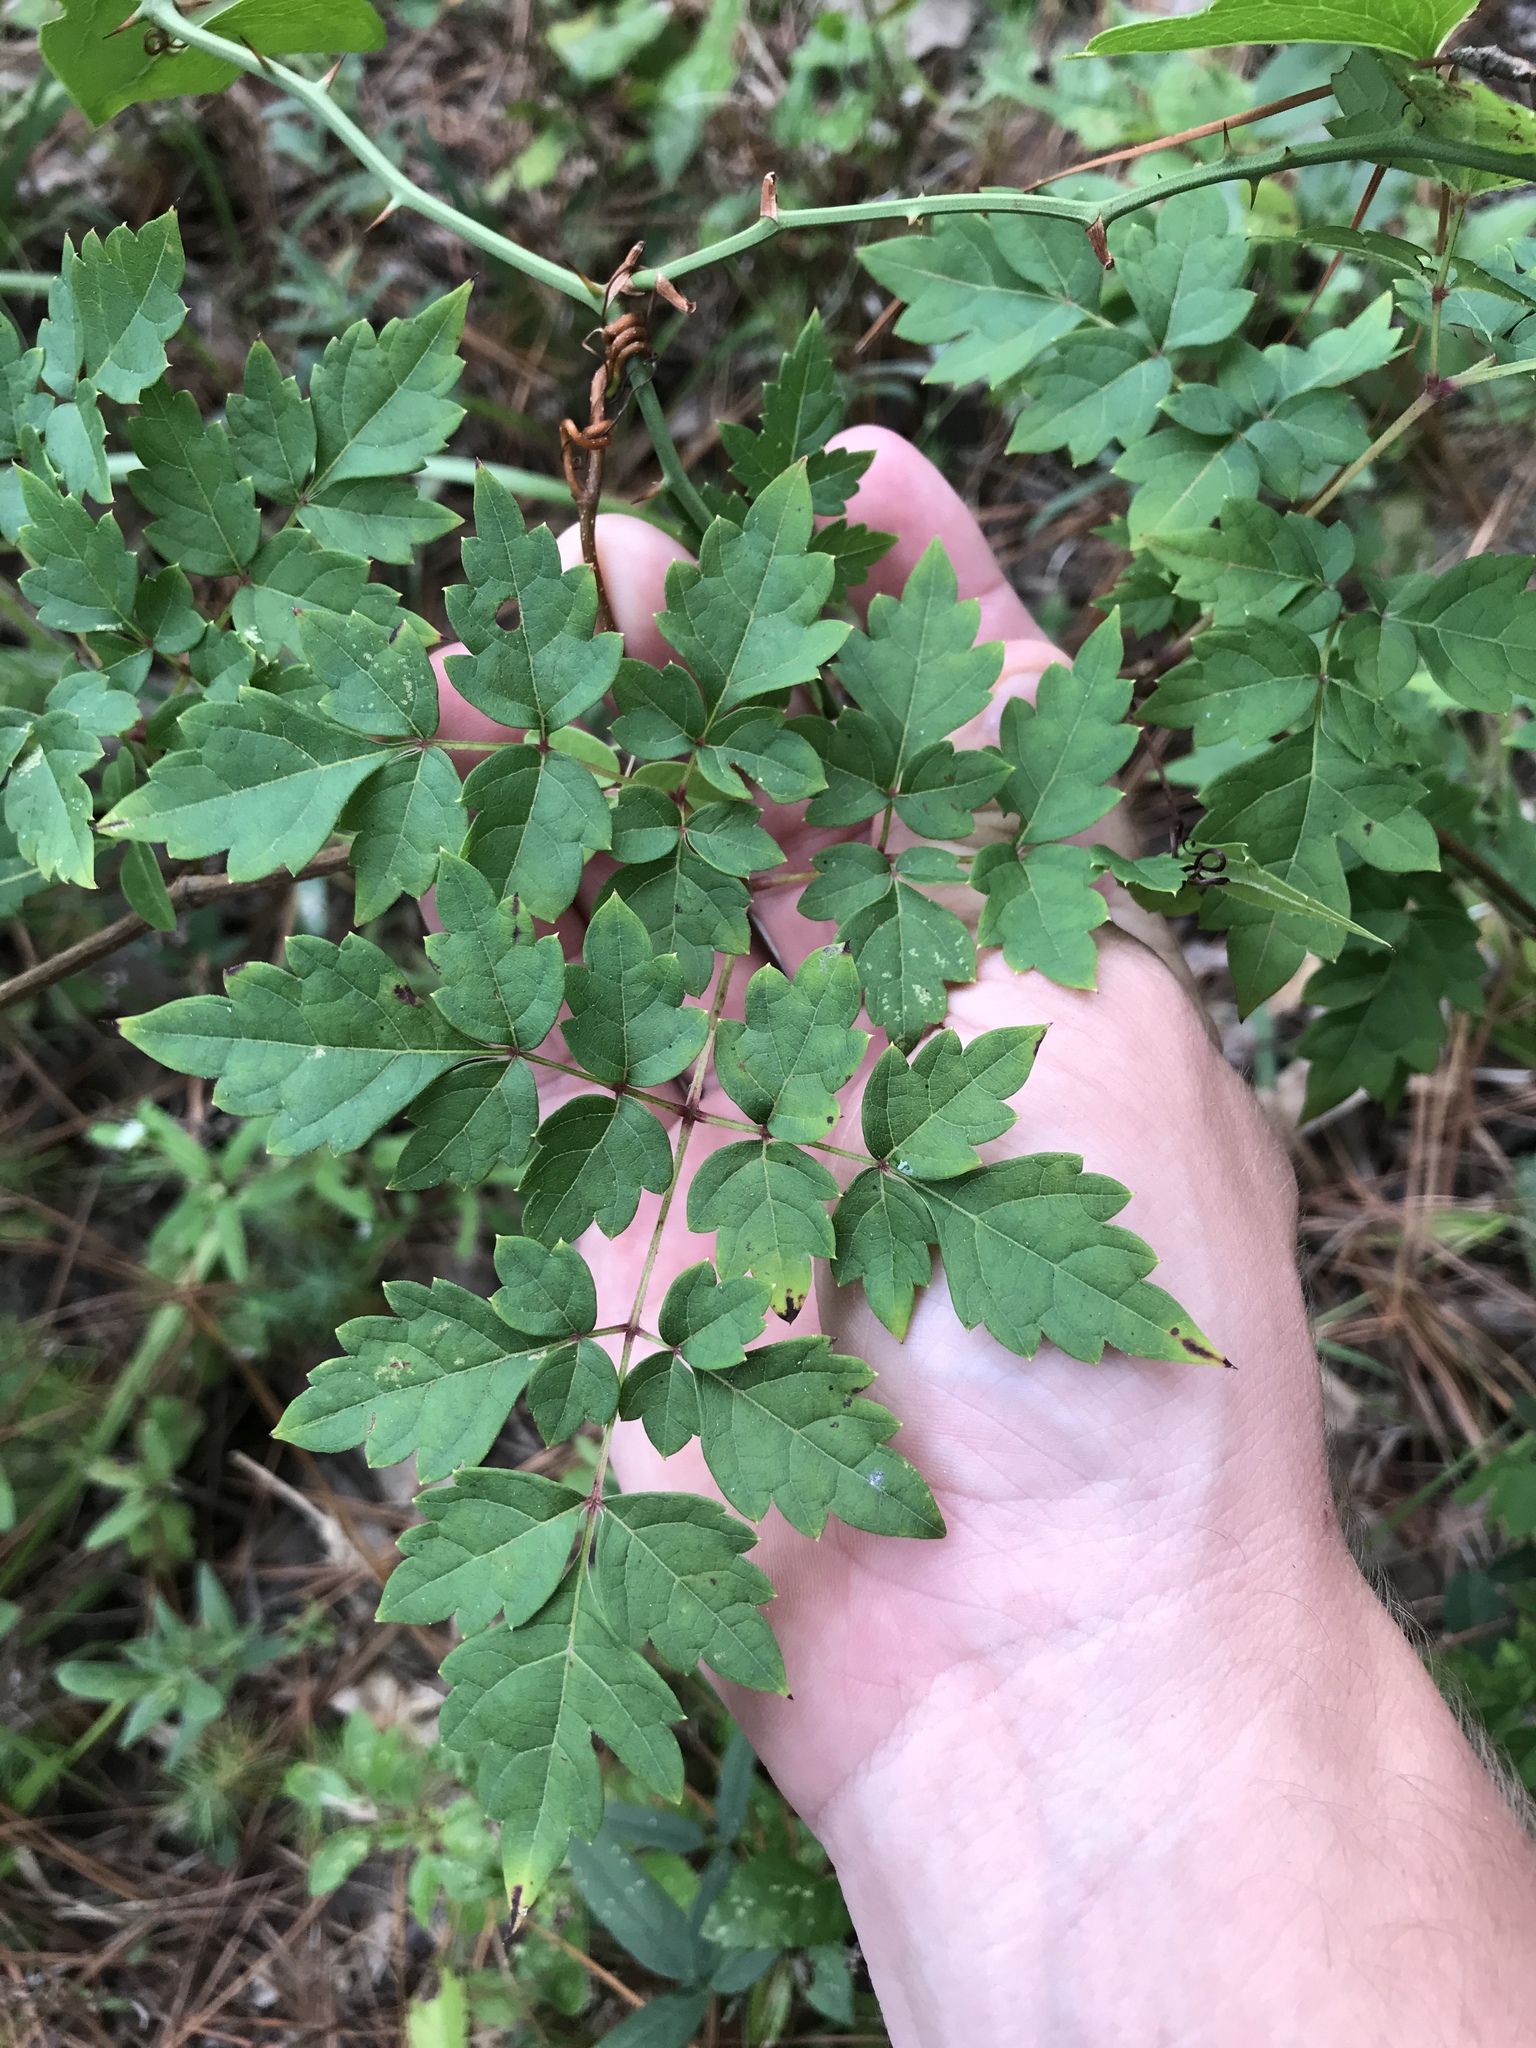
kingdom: Plantae
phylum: Tracheophyta
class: Magnoliopsida
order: Vitales
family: Vitaceae
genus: Nekemias
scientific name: Nekemias arborea
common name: Peppervine
